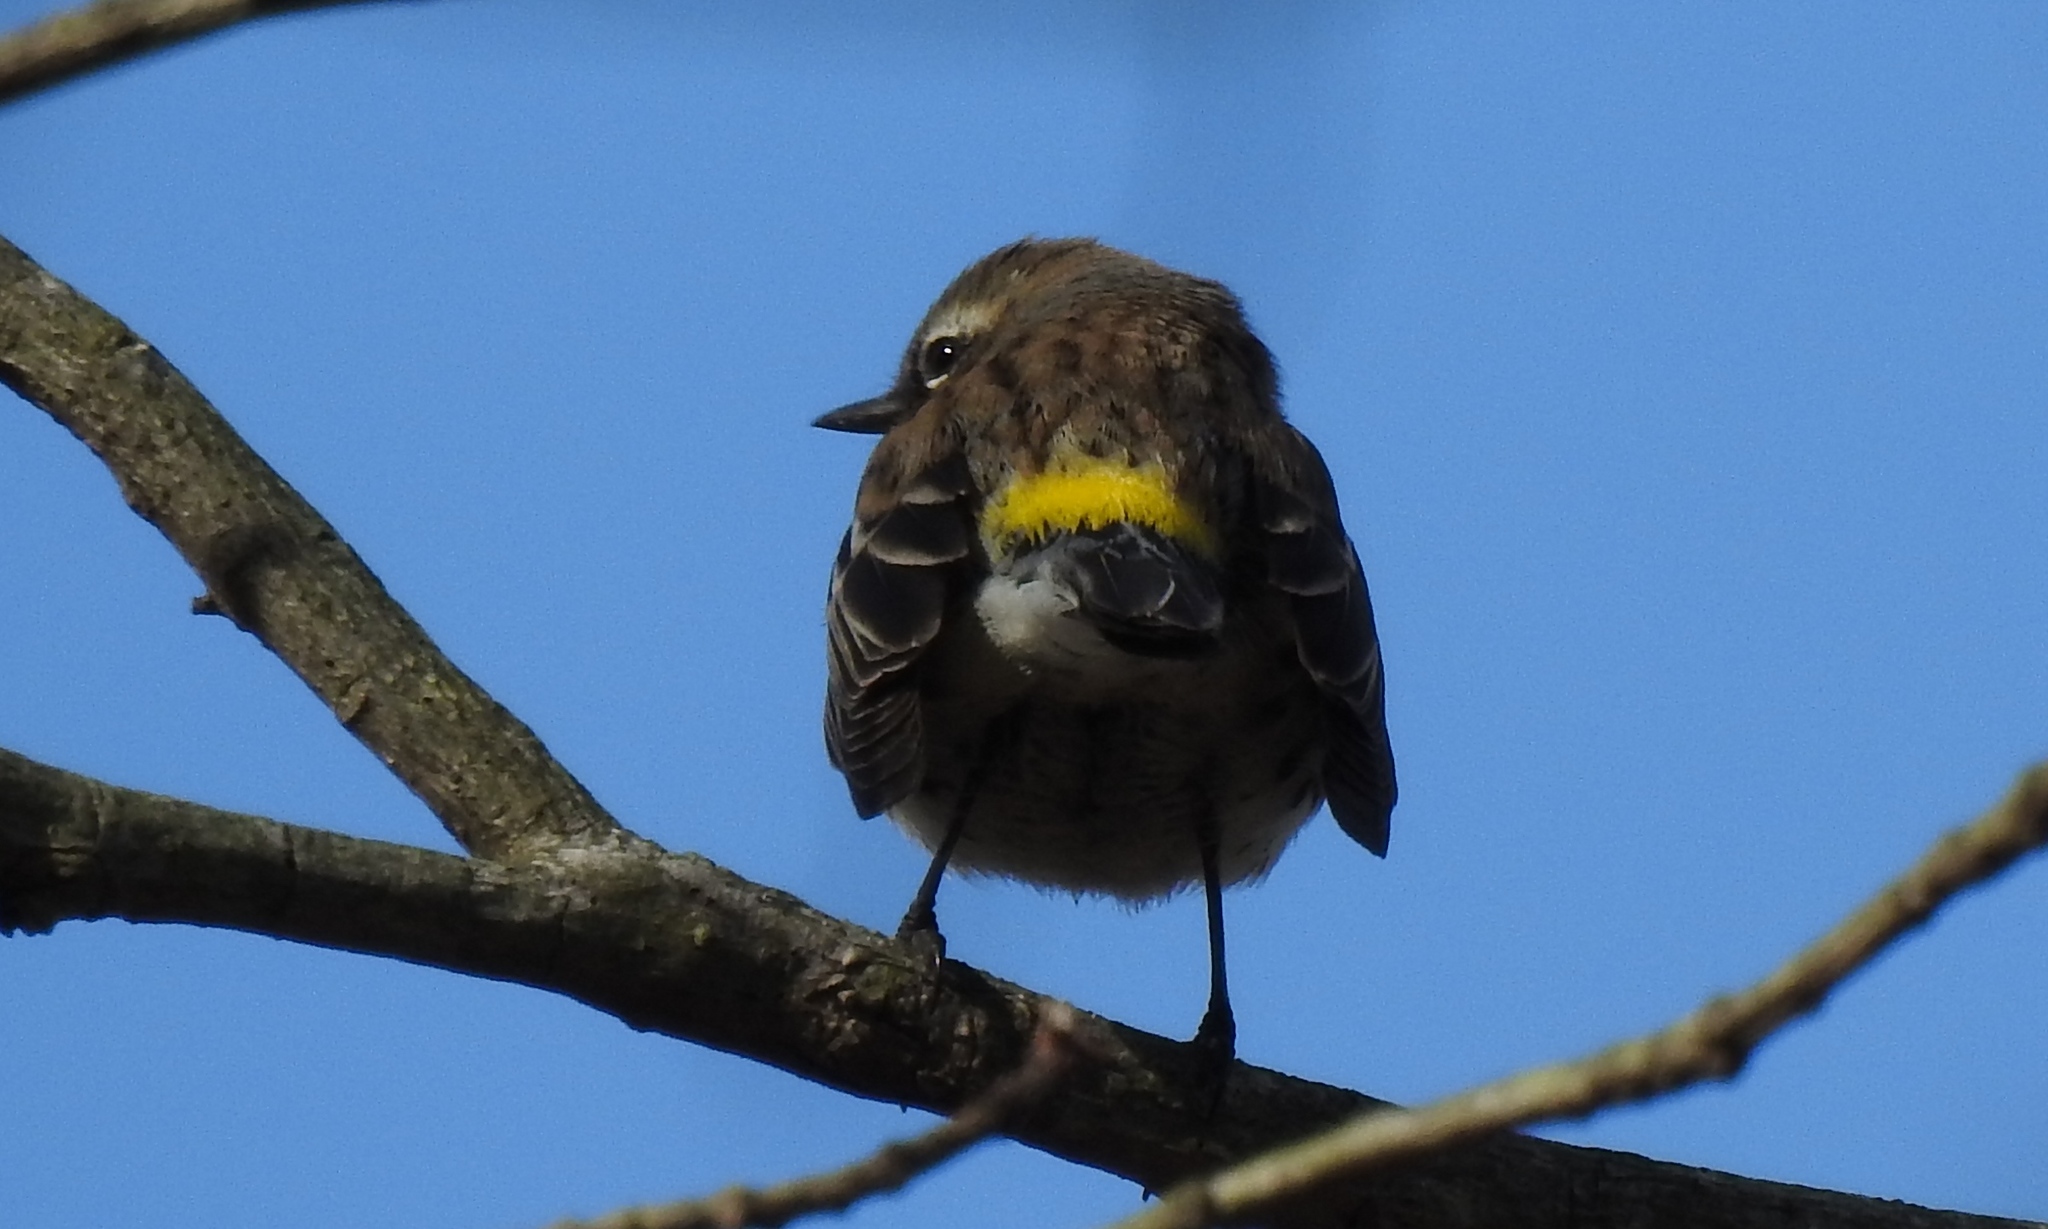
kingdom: Animalia
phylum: Chordata
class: Aves
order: Passeriformes
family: Parulidae
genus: Setophaga
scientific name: Setophaga coronata
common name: Myrtle warbler
